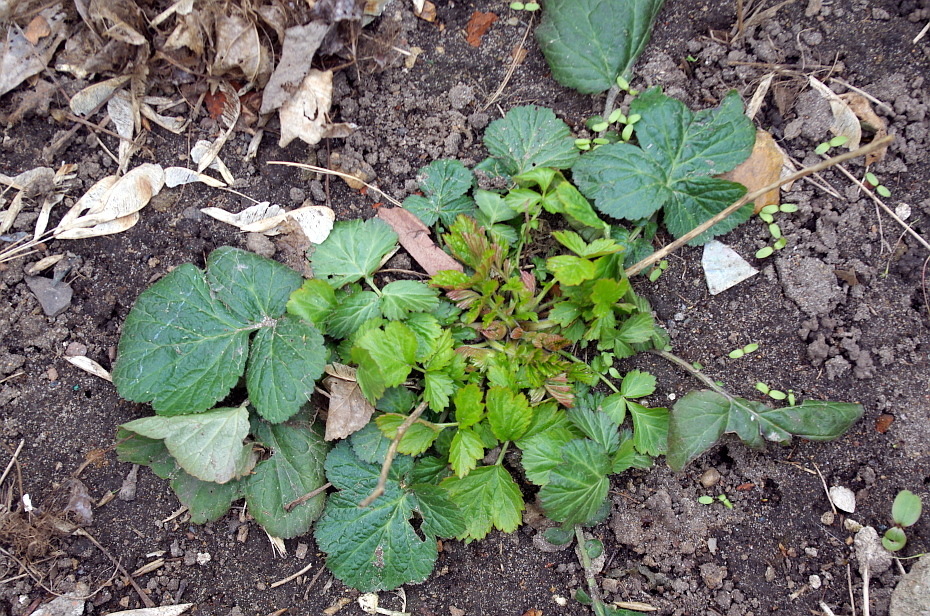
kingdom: Plantae
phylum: Tracheophyta
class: Magnoliopsida
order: Rosales
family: Rosaceae
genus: Geum
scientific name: Geum
